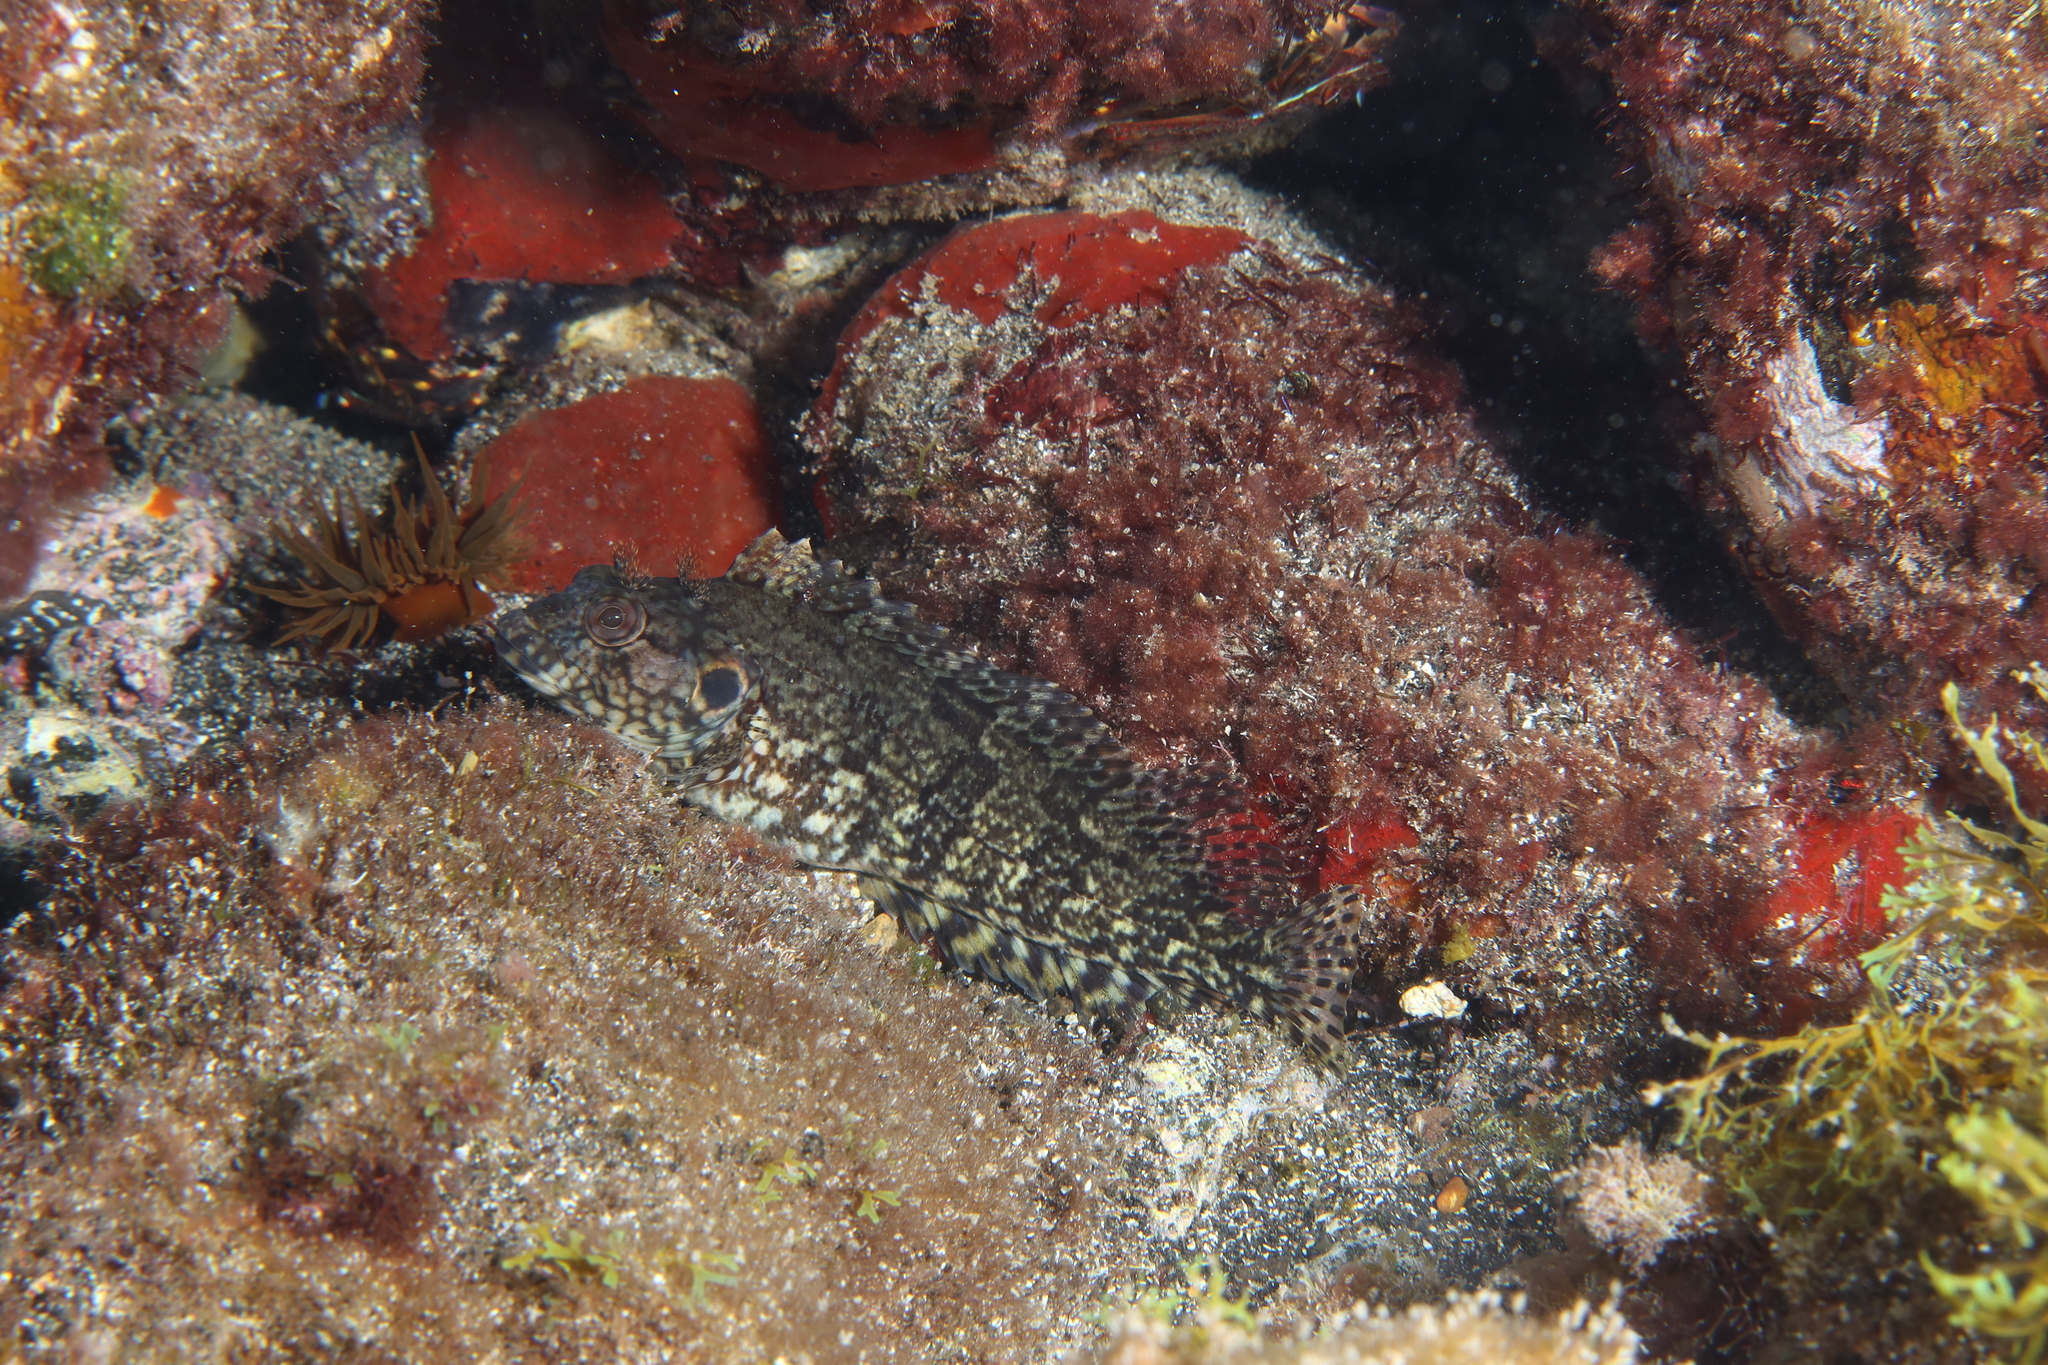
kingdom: Animalia
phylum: Chordata
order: Perciformes
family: Labrisomidae
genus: Labrisomus
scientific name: Labrisomus nuchipinnis
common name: Hairy blenny
